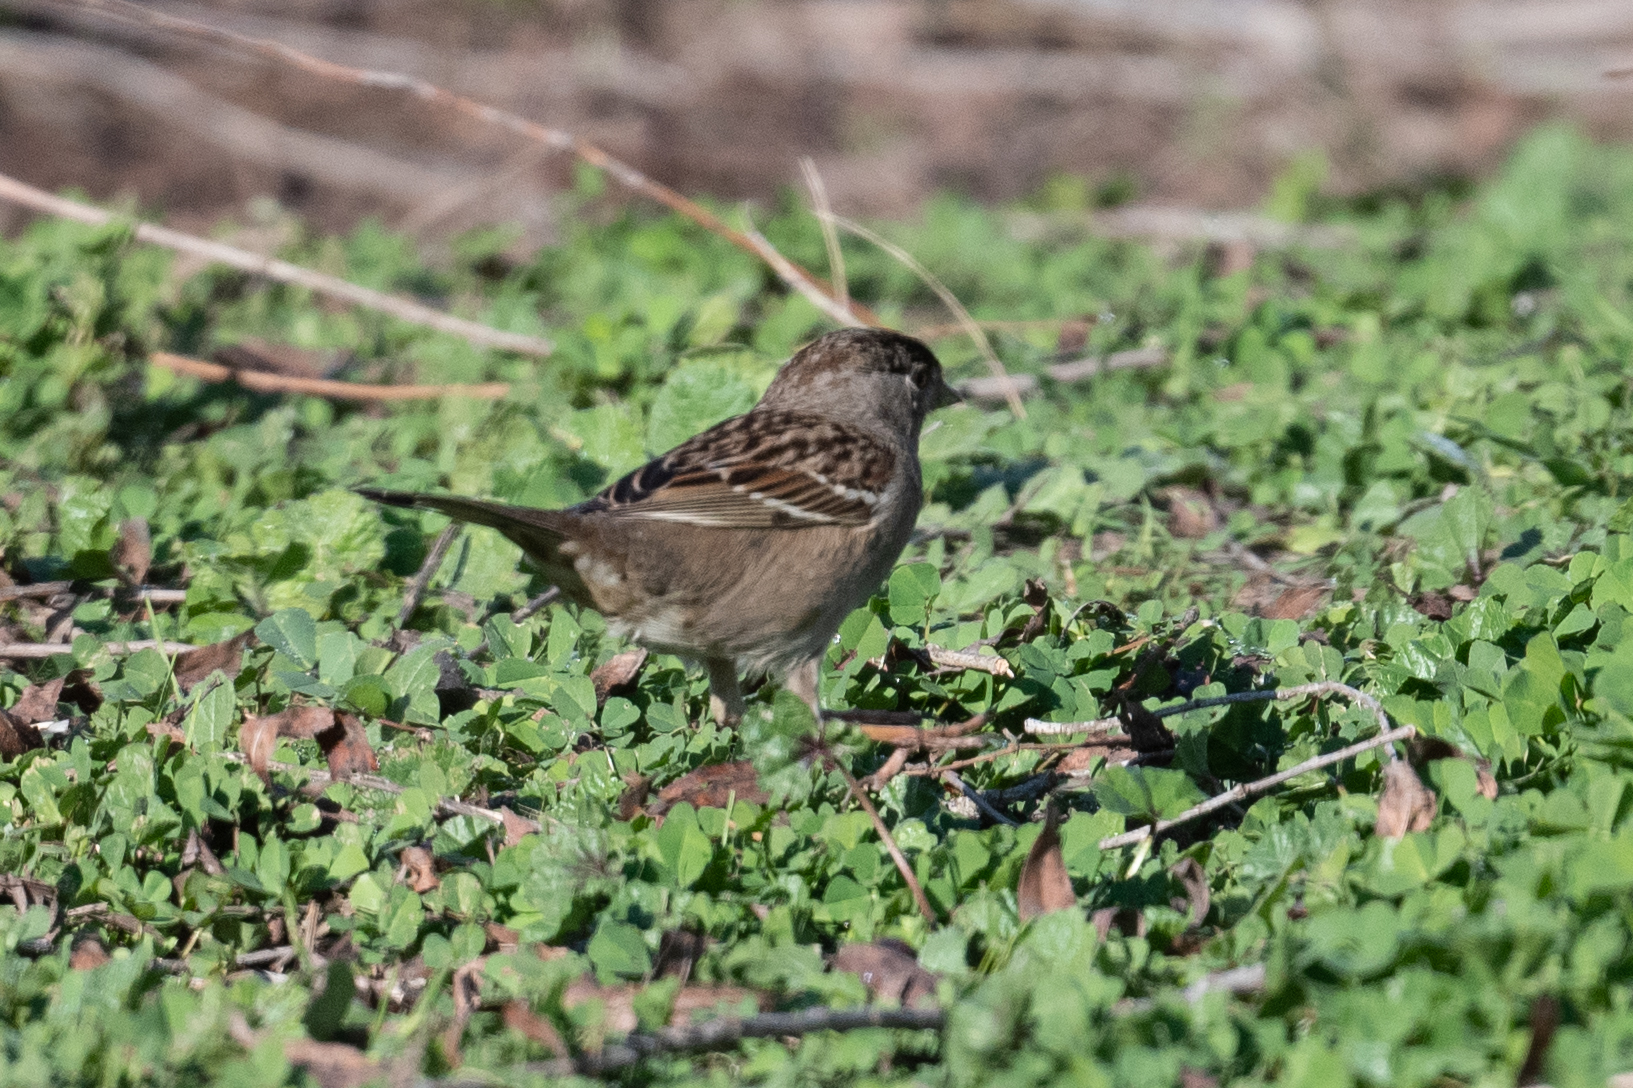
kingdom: Animalia
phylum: Chordata
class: Aves
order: Passeriformes
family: Passerellidae
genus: Zonotrichia
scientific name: Zonotrichia atricapilla
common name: Golden-crowned sparrow
